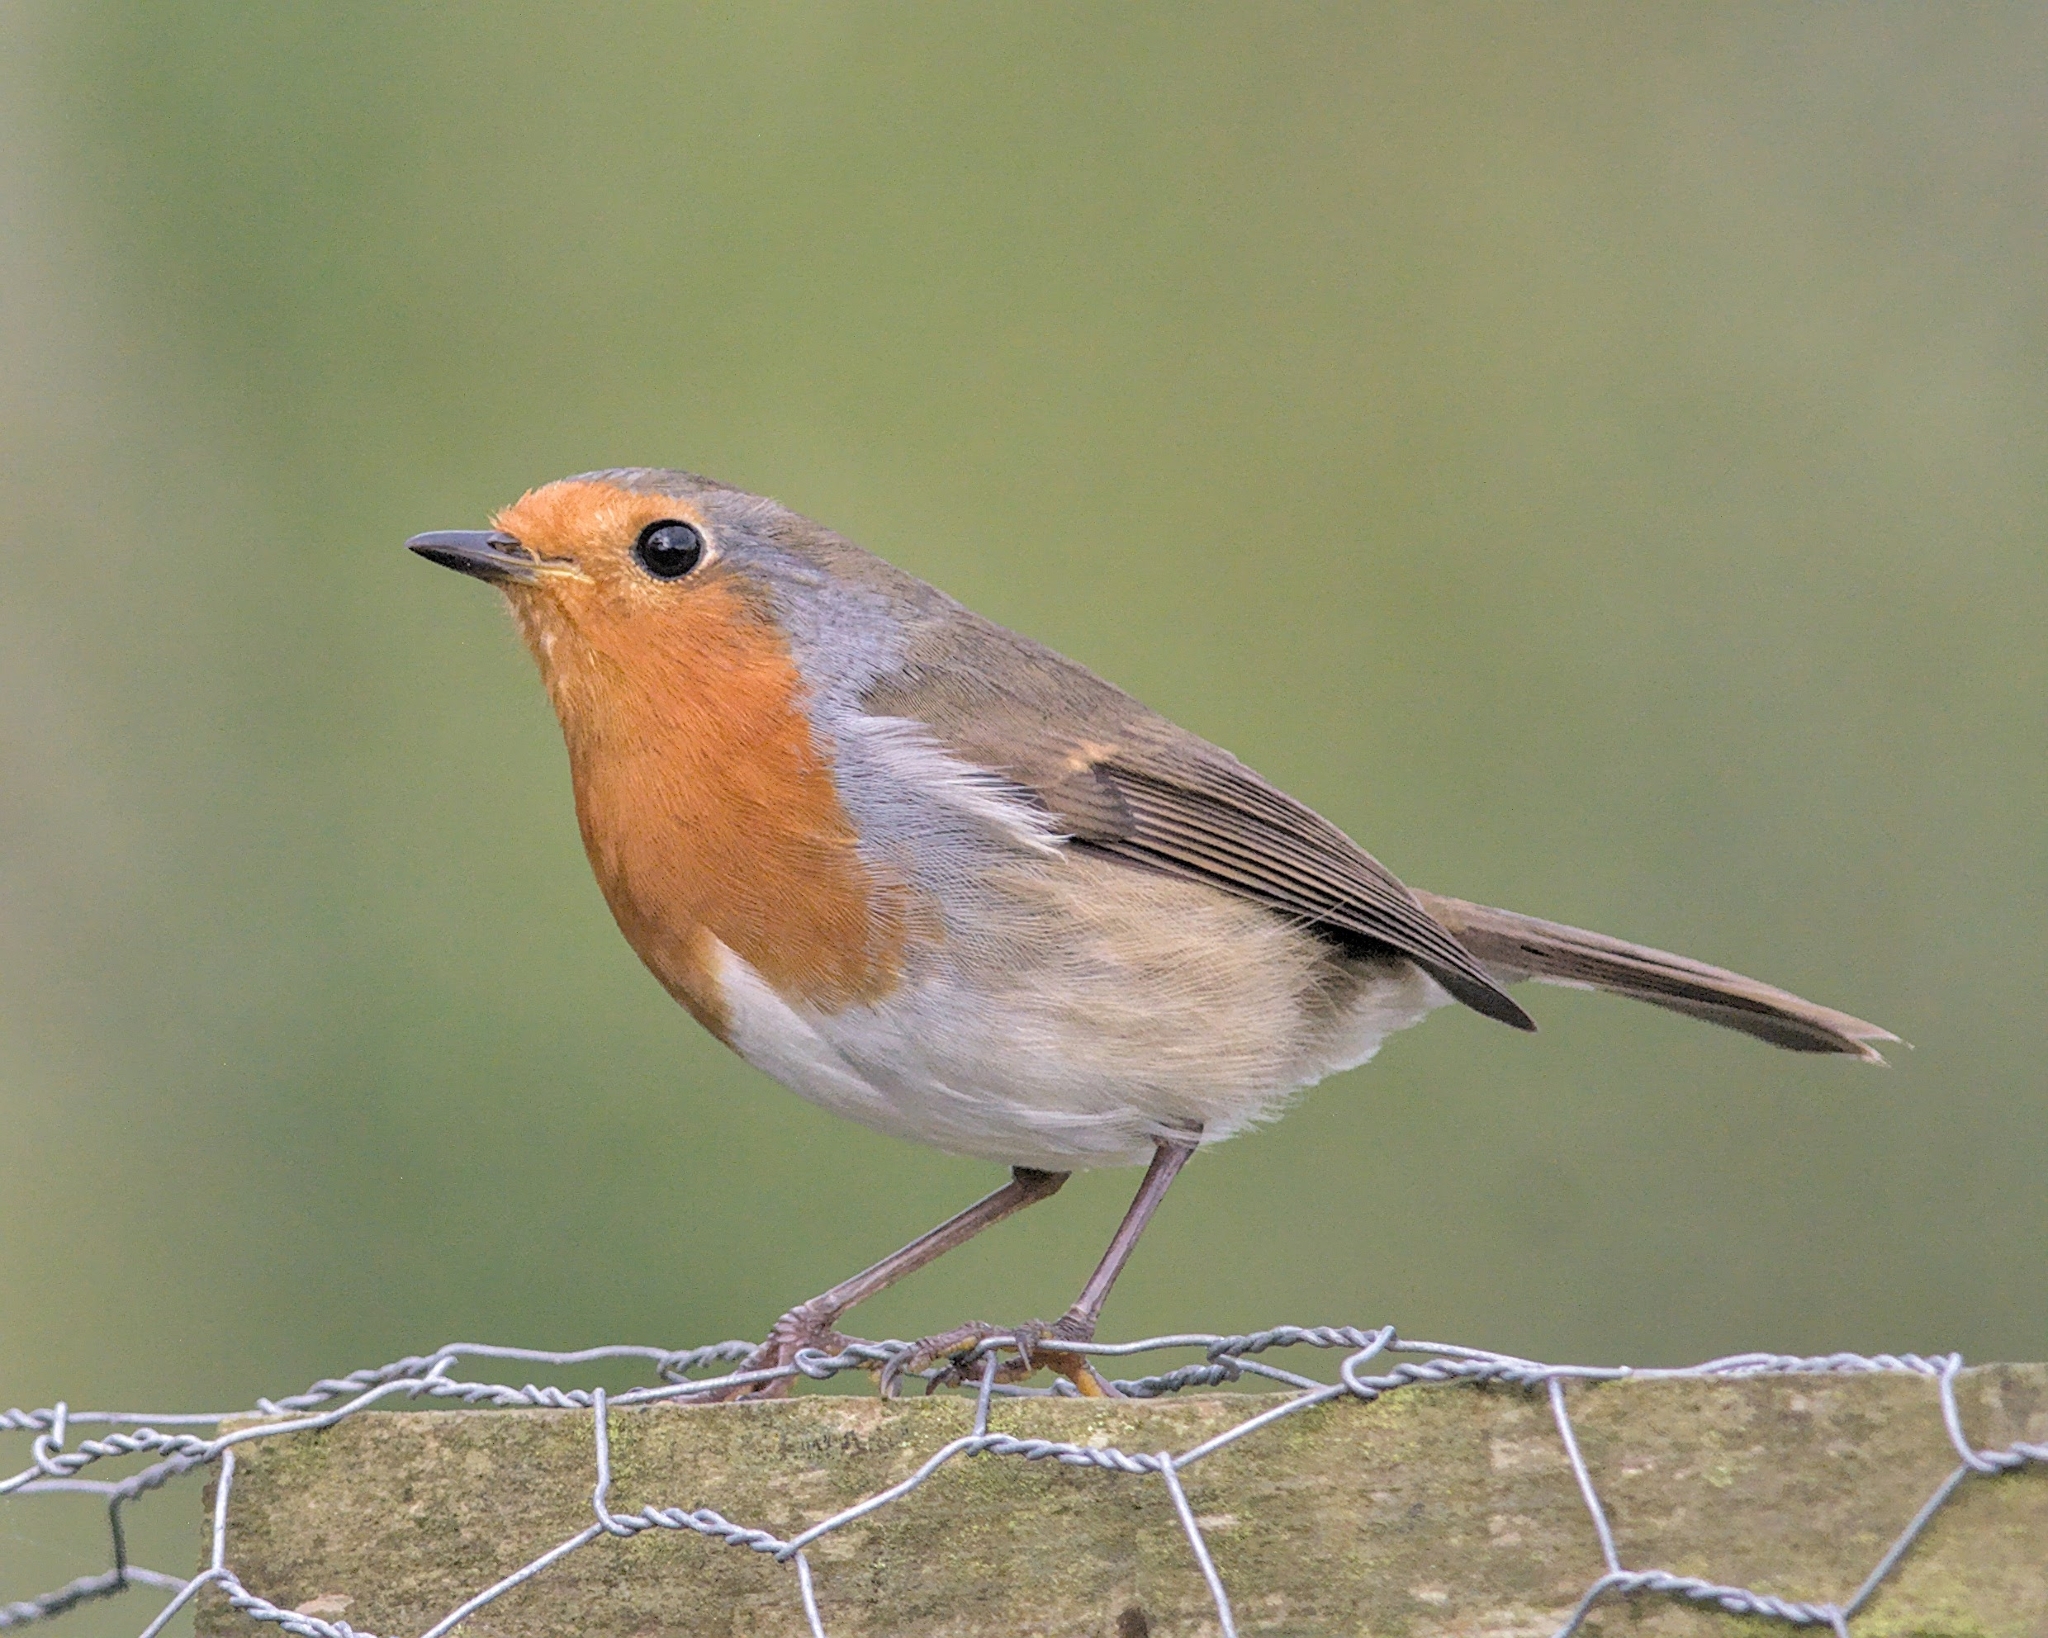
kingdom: Animalia
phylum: Chordata
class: Aves
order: Passeriformes
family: Muscicapidae
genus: Erithacus
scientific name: Erithacus rubecula
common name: European robin
